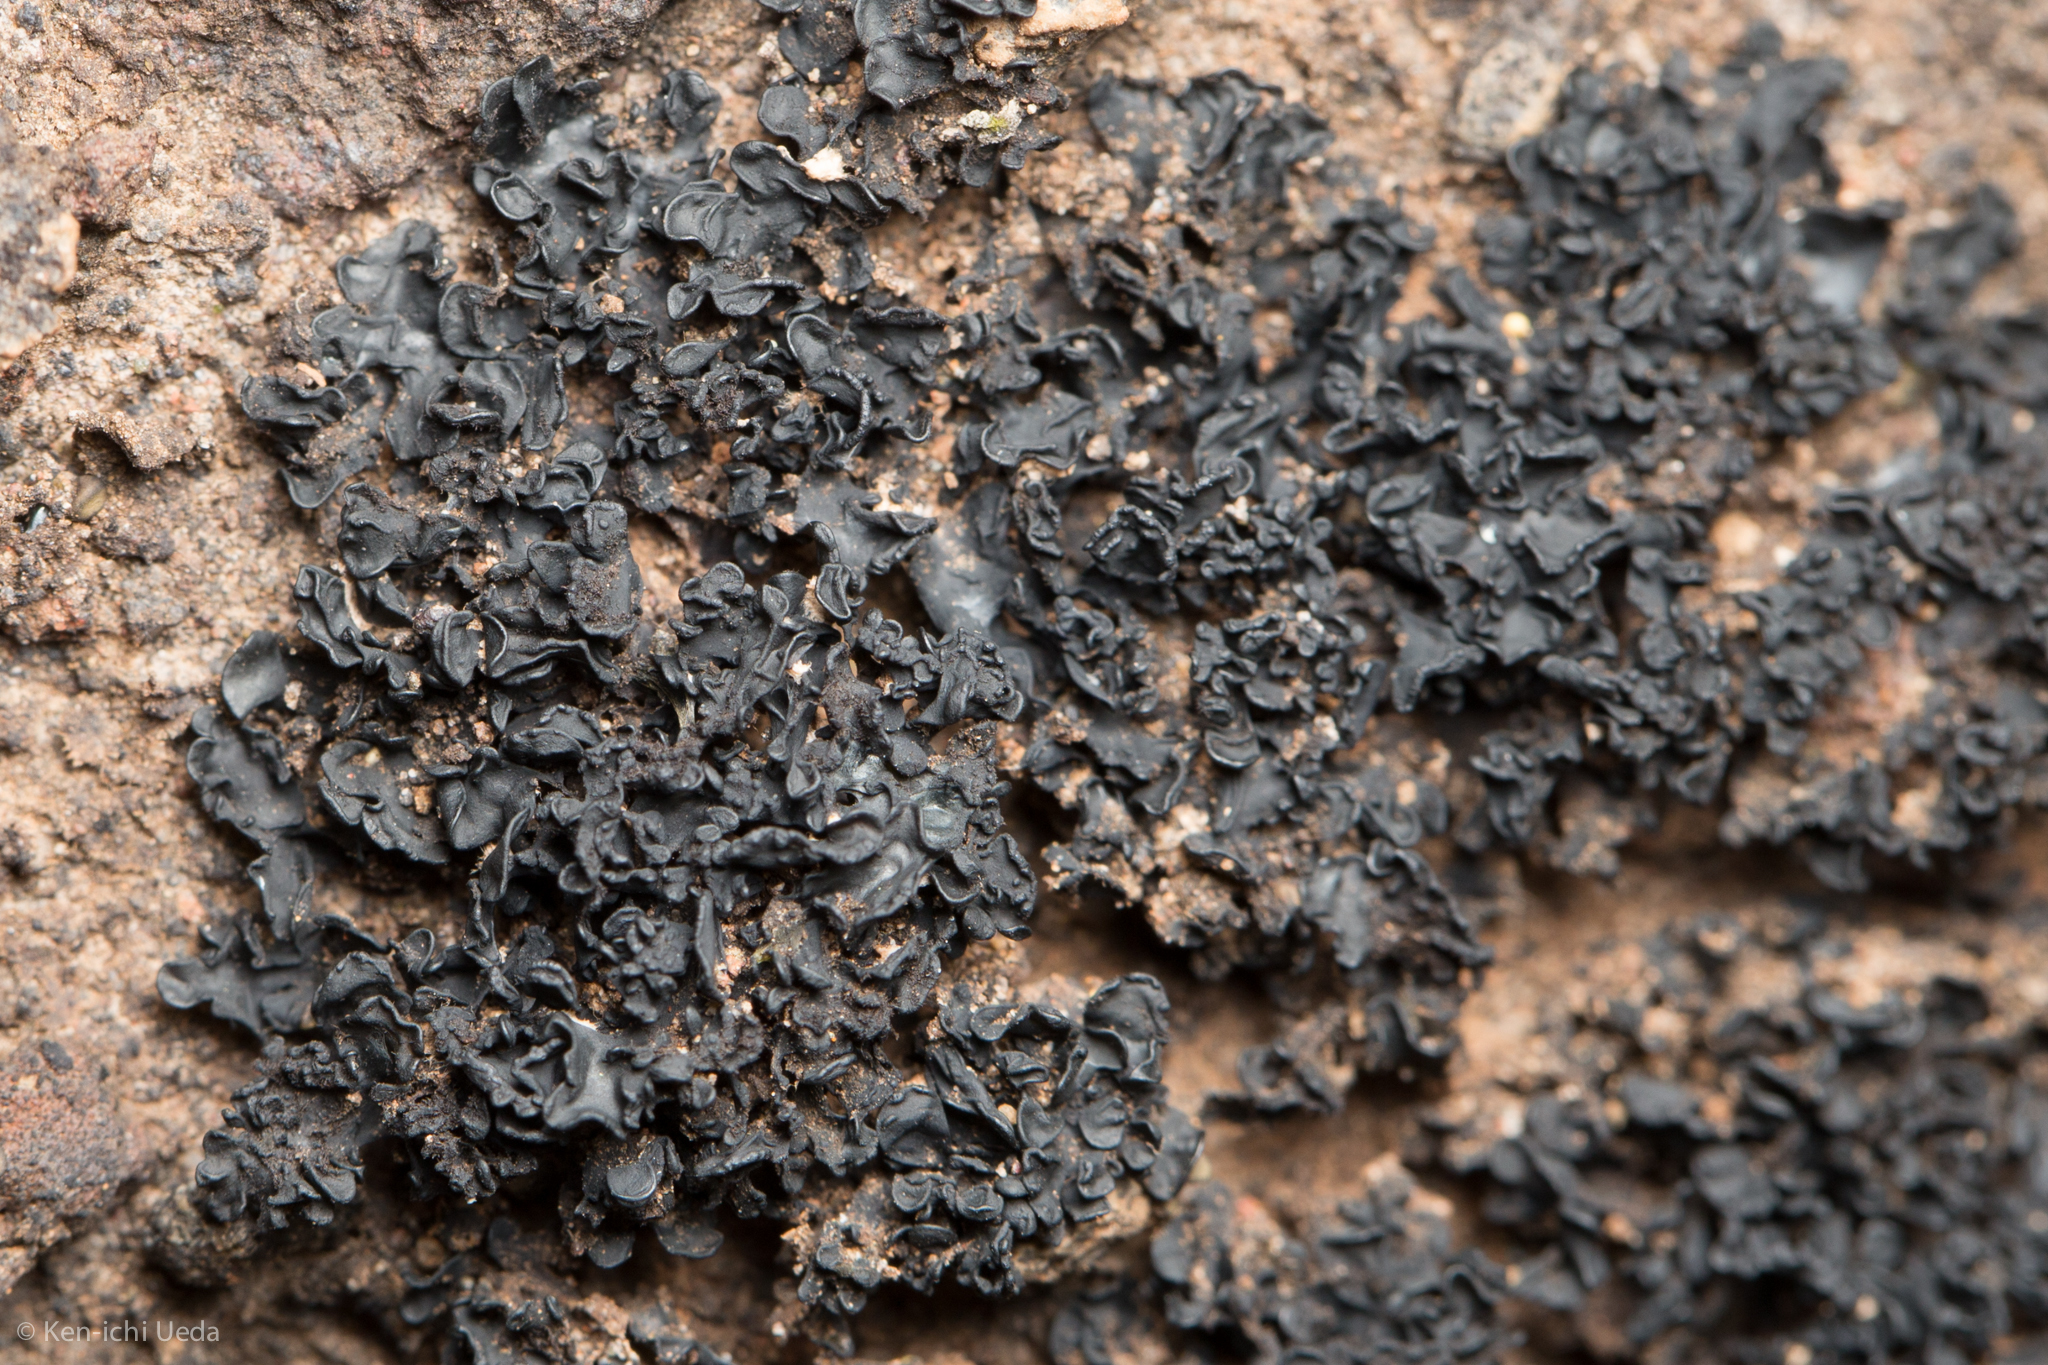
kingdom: Fungi
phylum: Ascomycota
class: Lichinomycetes
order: Lichinales
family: Lichinaceae
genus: Lichinella
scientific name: Lichinella cribellifera
